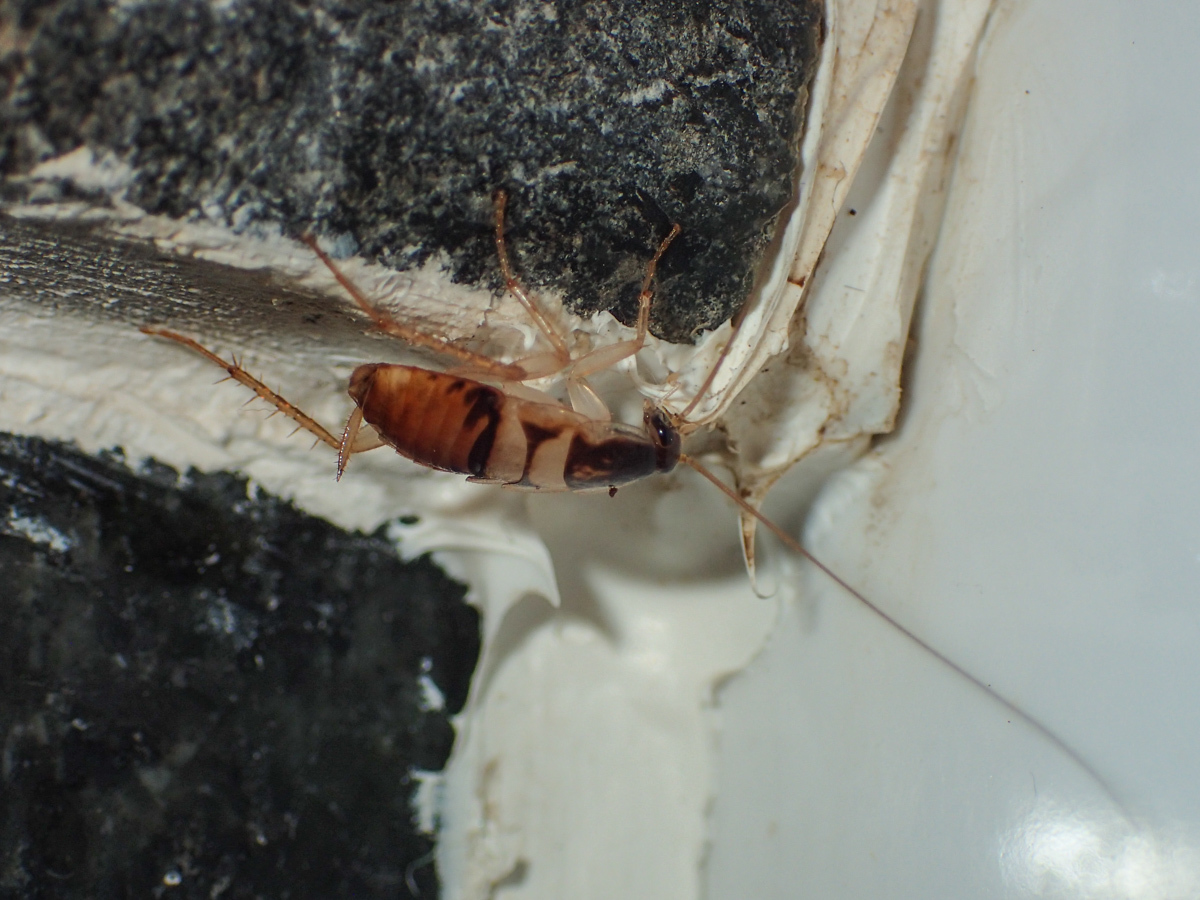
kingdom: Animalia
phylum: Arthropoda
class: Insecta
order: Blattodea
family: Ectobiidae
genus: Supella
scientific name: Supella longipalpa
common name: Brown-banded cockroach
